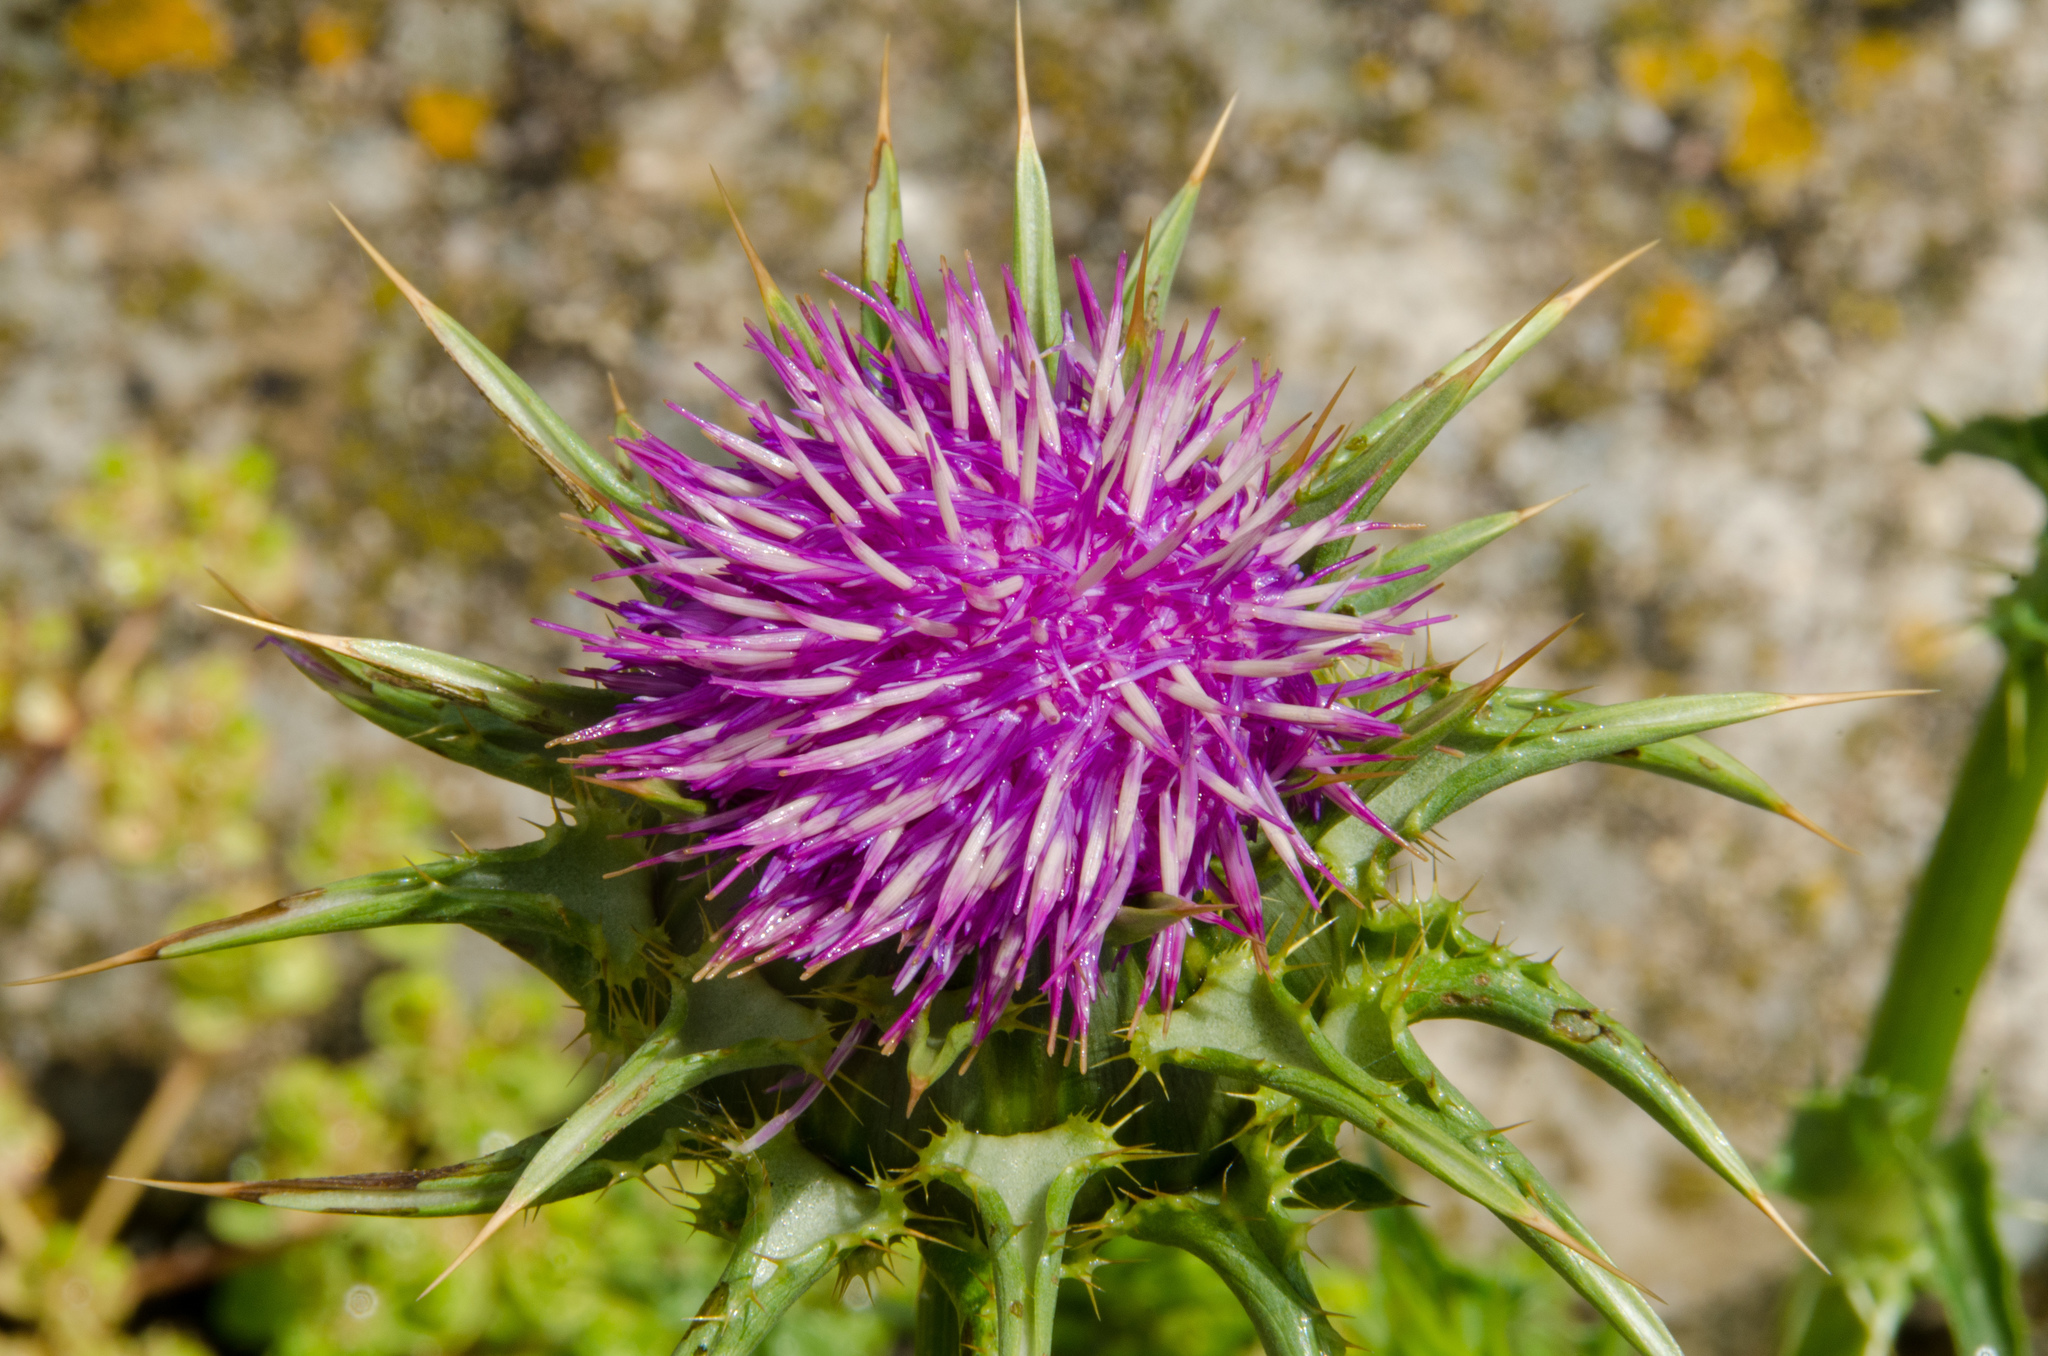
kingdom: Plantae
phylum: Tracheophyta
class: Magnoliopsida
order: Asterales
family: Asteraceae
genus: Silybum
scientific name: Silybum marianum
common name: Milk thistle
